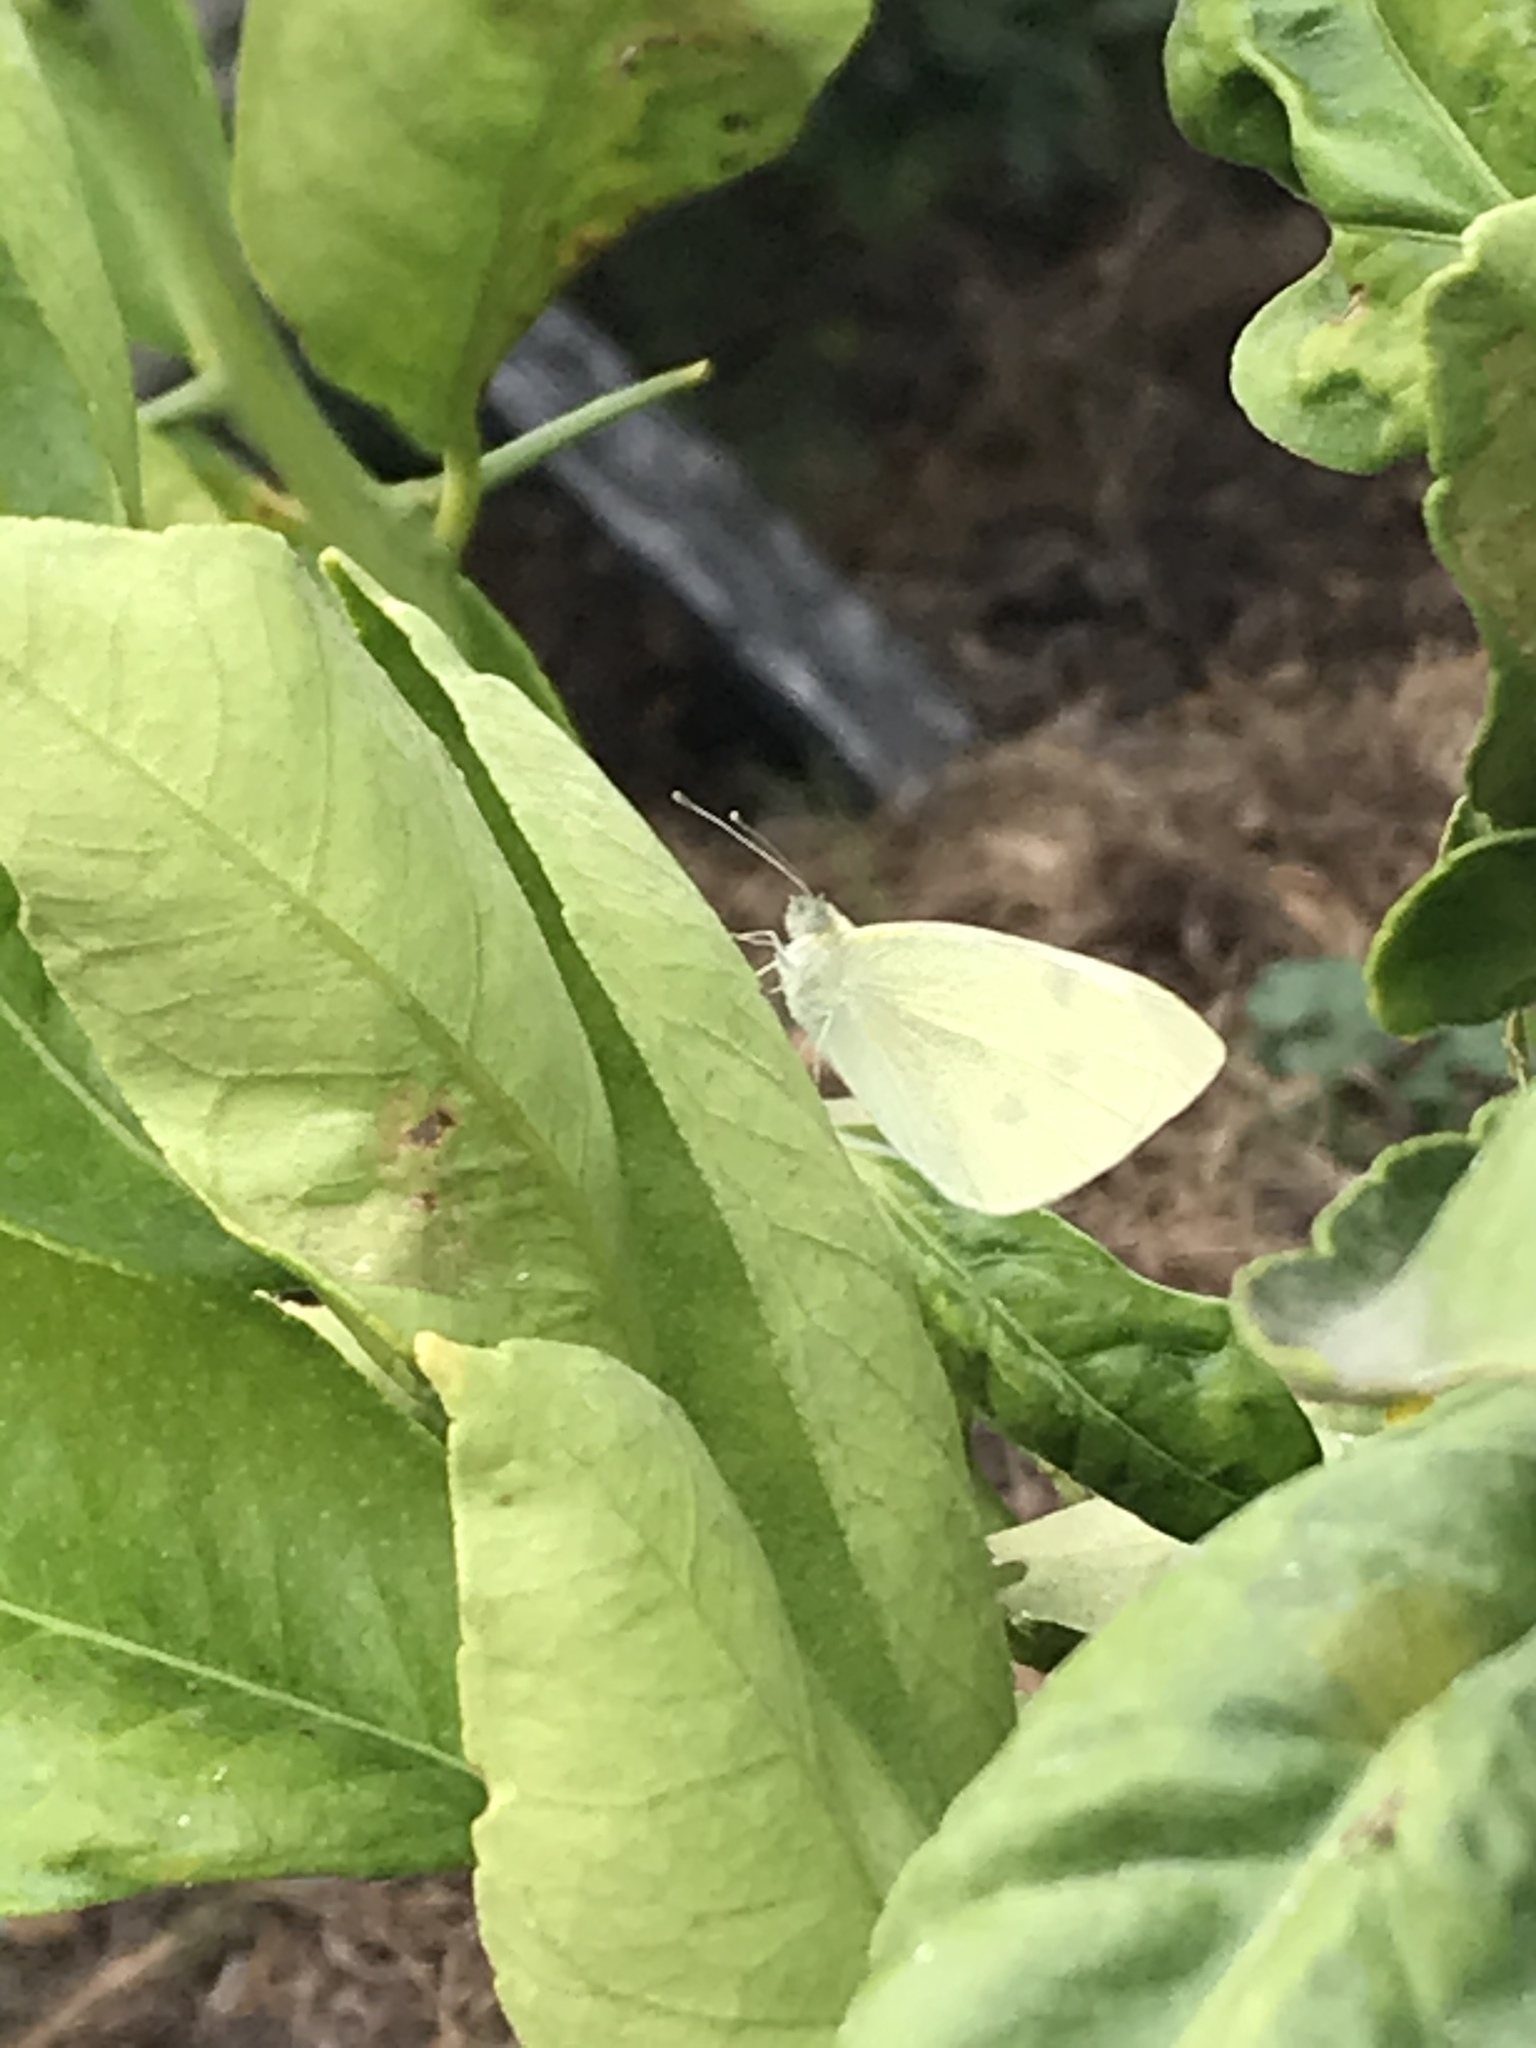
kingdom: Animalia
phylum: Arthropoda
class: Insecta
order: Lepidoptera
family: Pieridae
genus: Pieris
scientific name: Pieris rapae
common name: Small white
